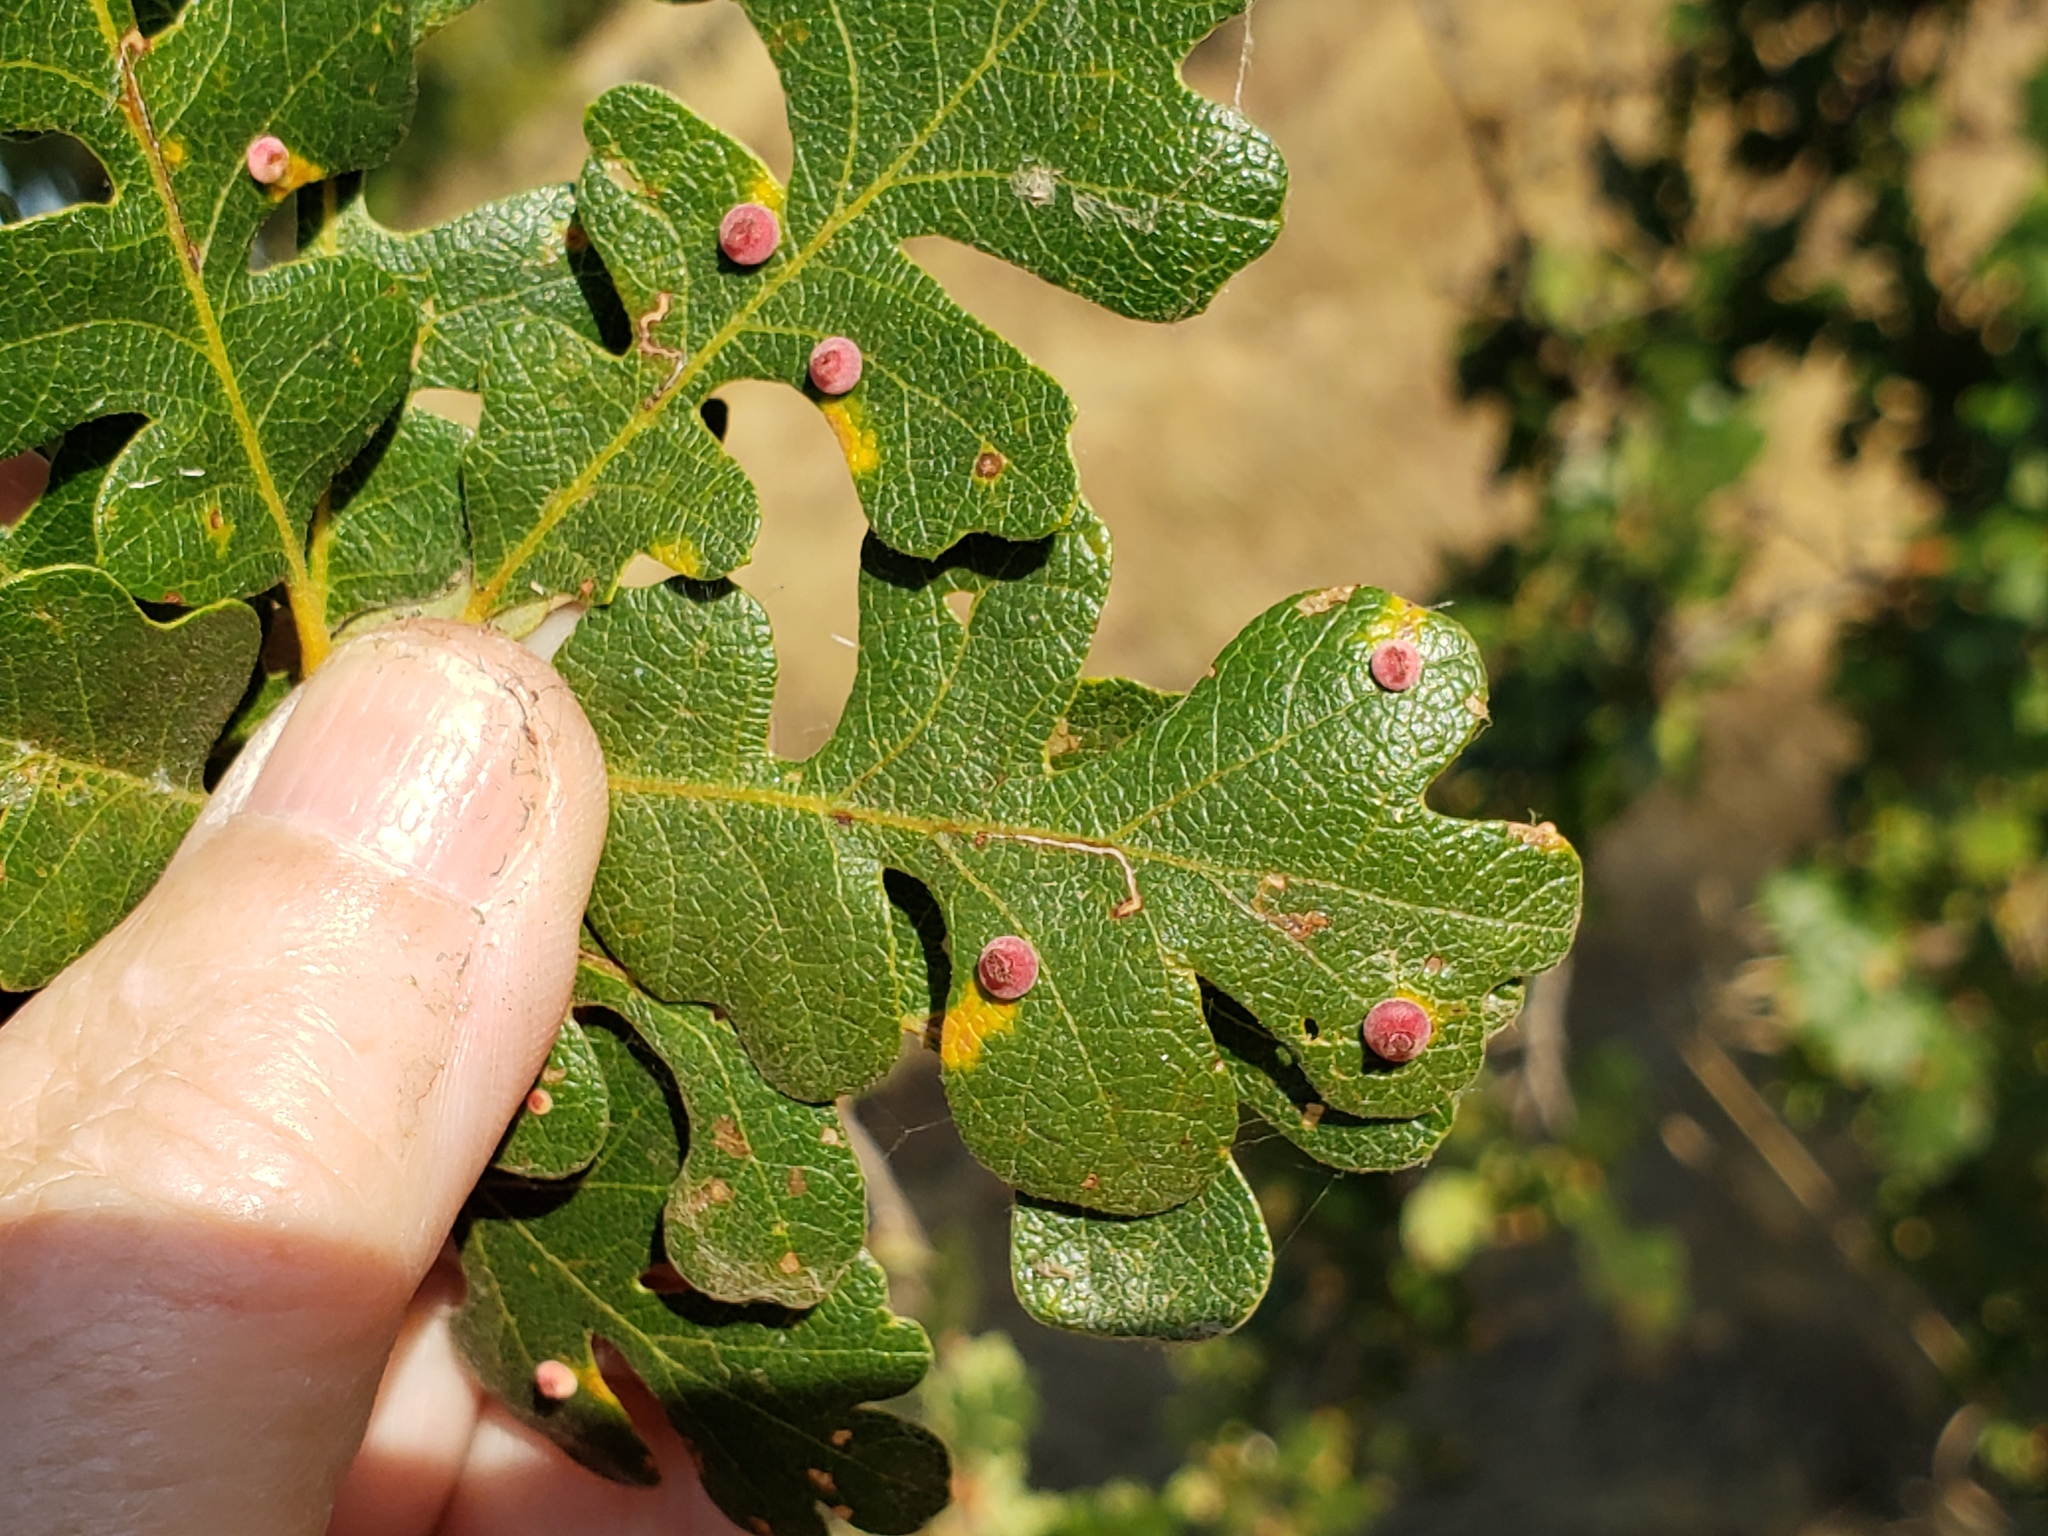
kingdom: Animalia
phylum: Arthropoda
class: Insecta
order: Hymenoptera
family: Cynipidae
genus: Andricus
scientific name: Andricus
